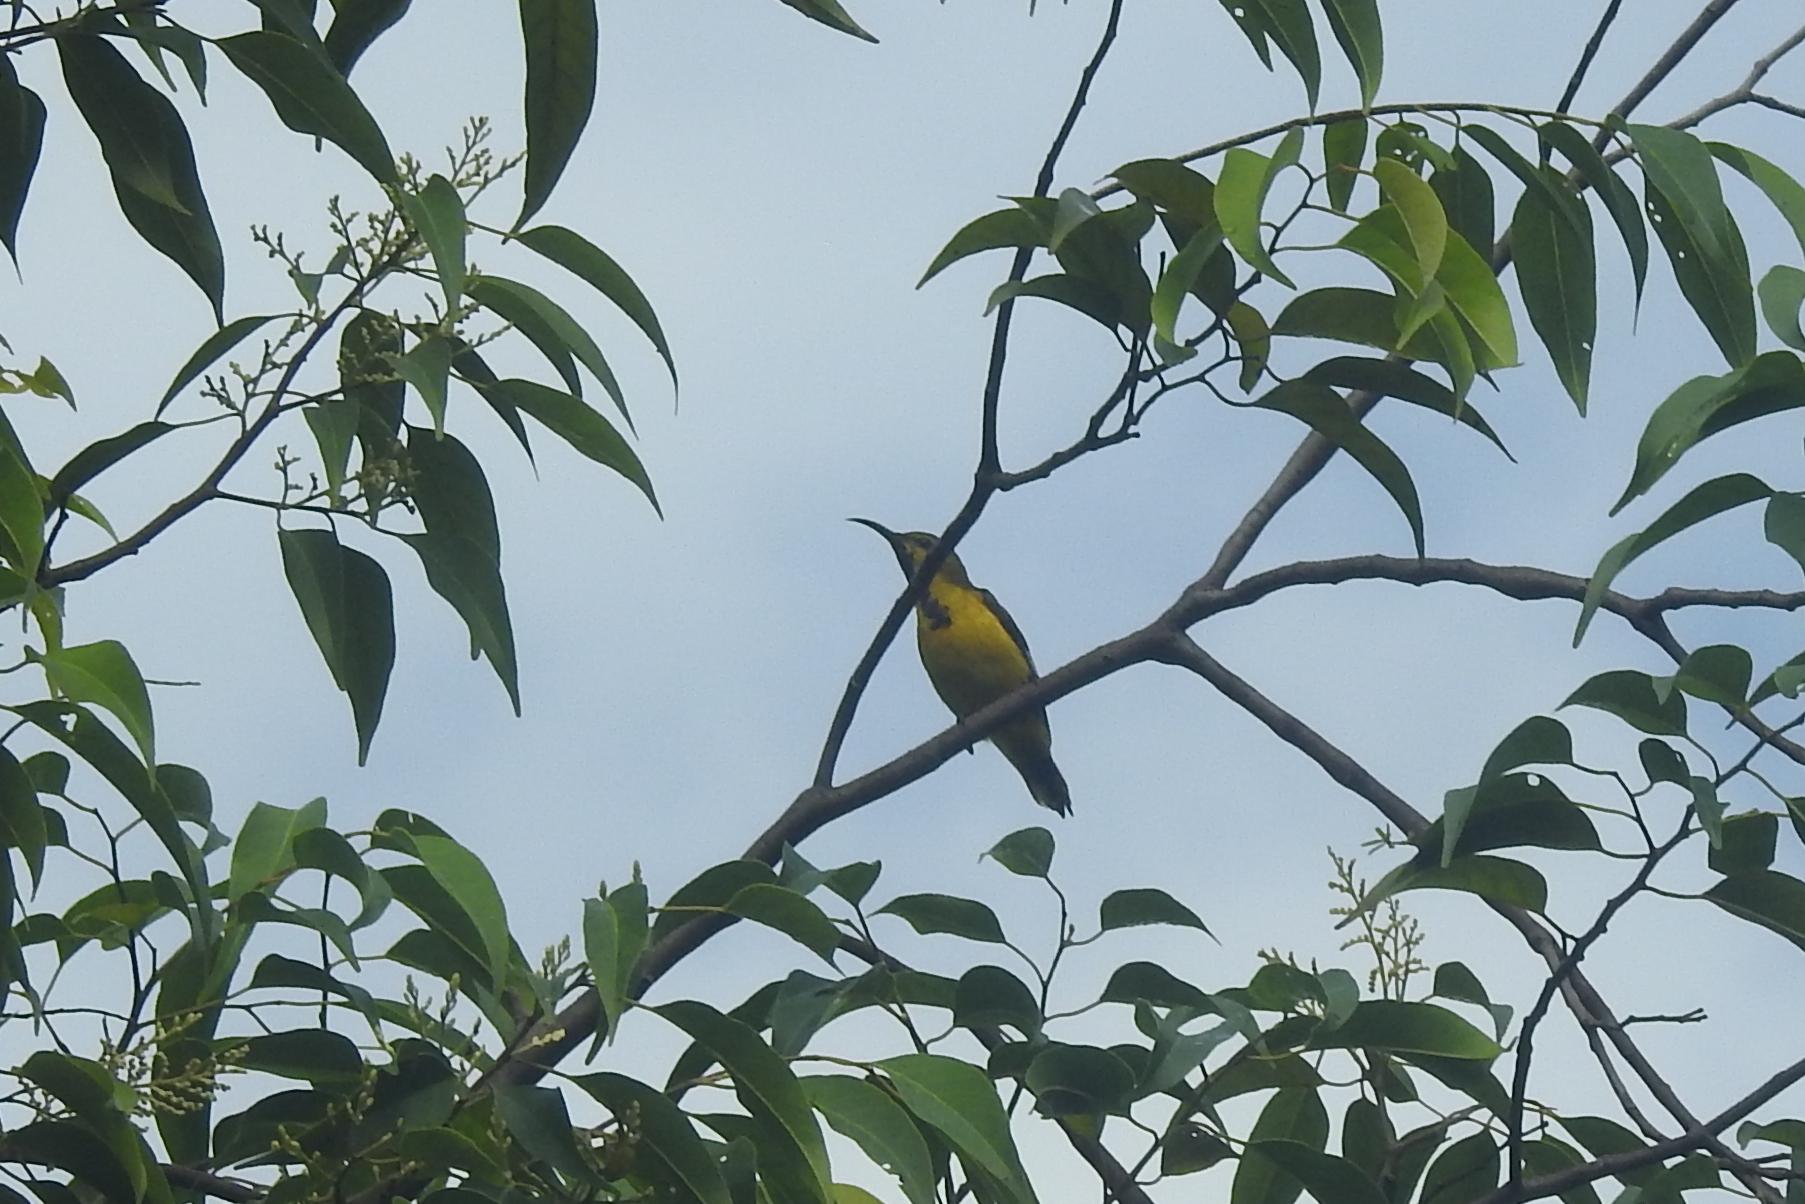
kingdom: Animalia
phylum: Chordata
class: Aves
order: Passeriformes
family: Nectariniidae
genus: Cinnyris
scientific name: Cinnyris
